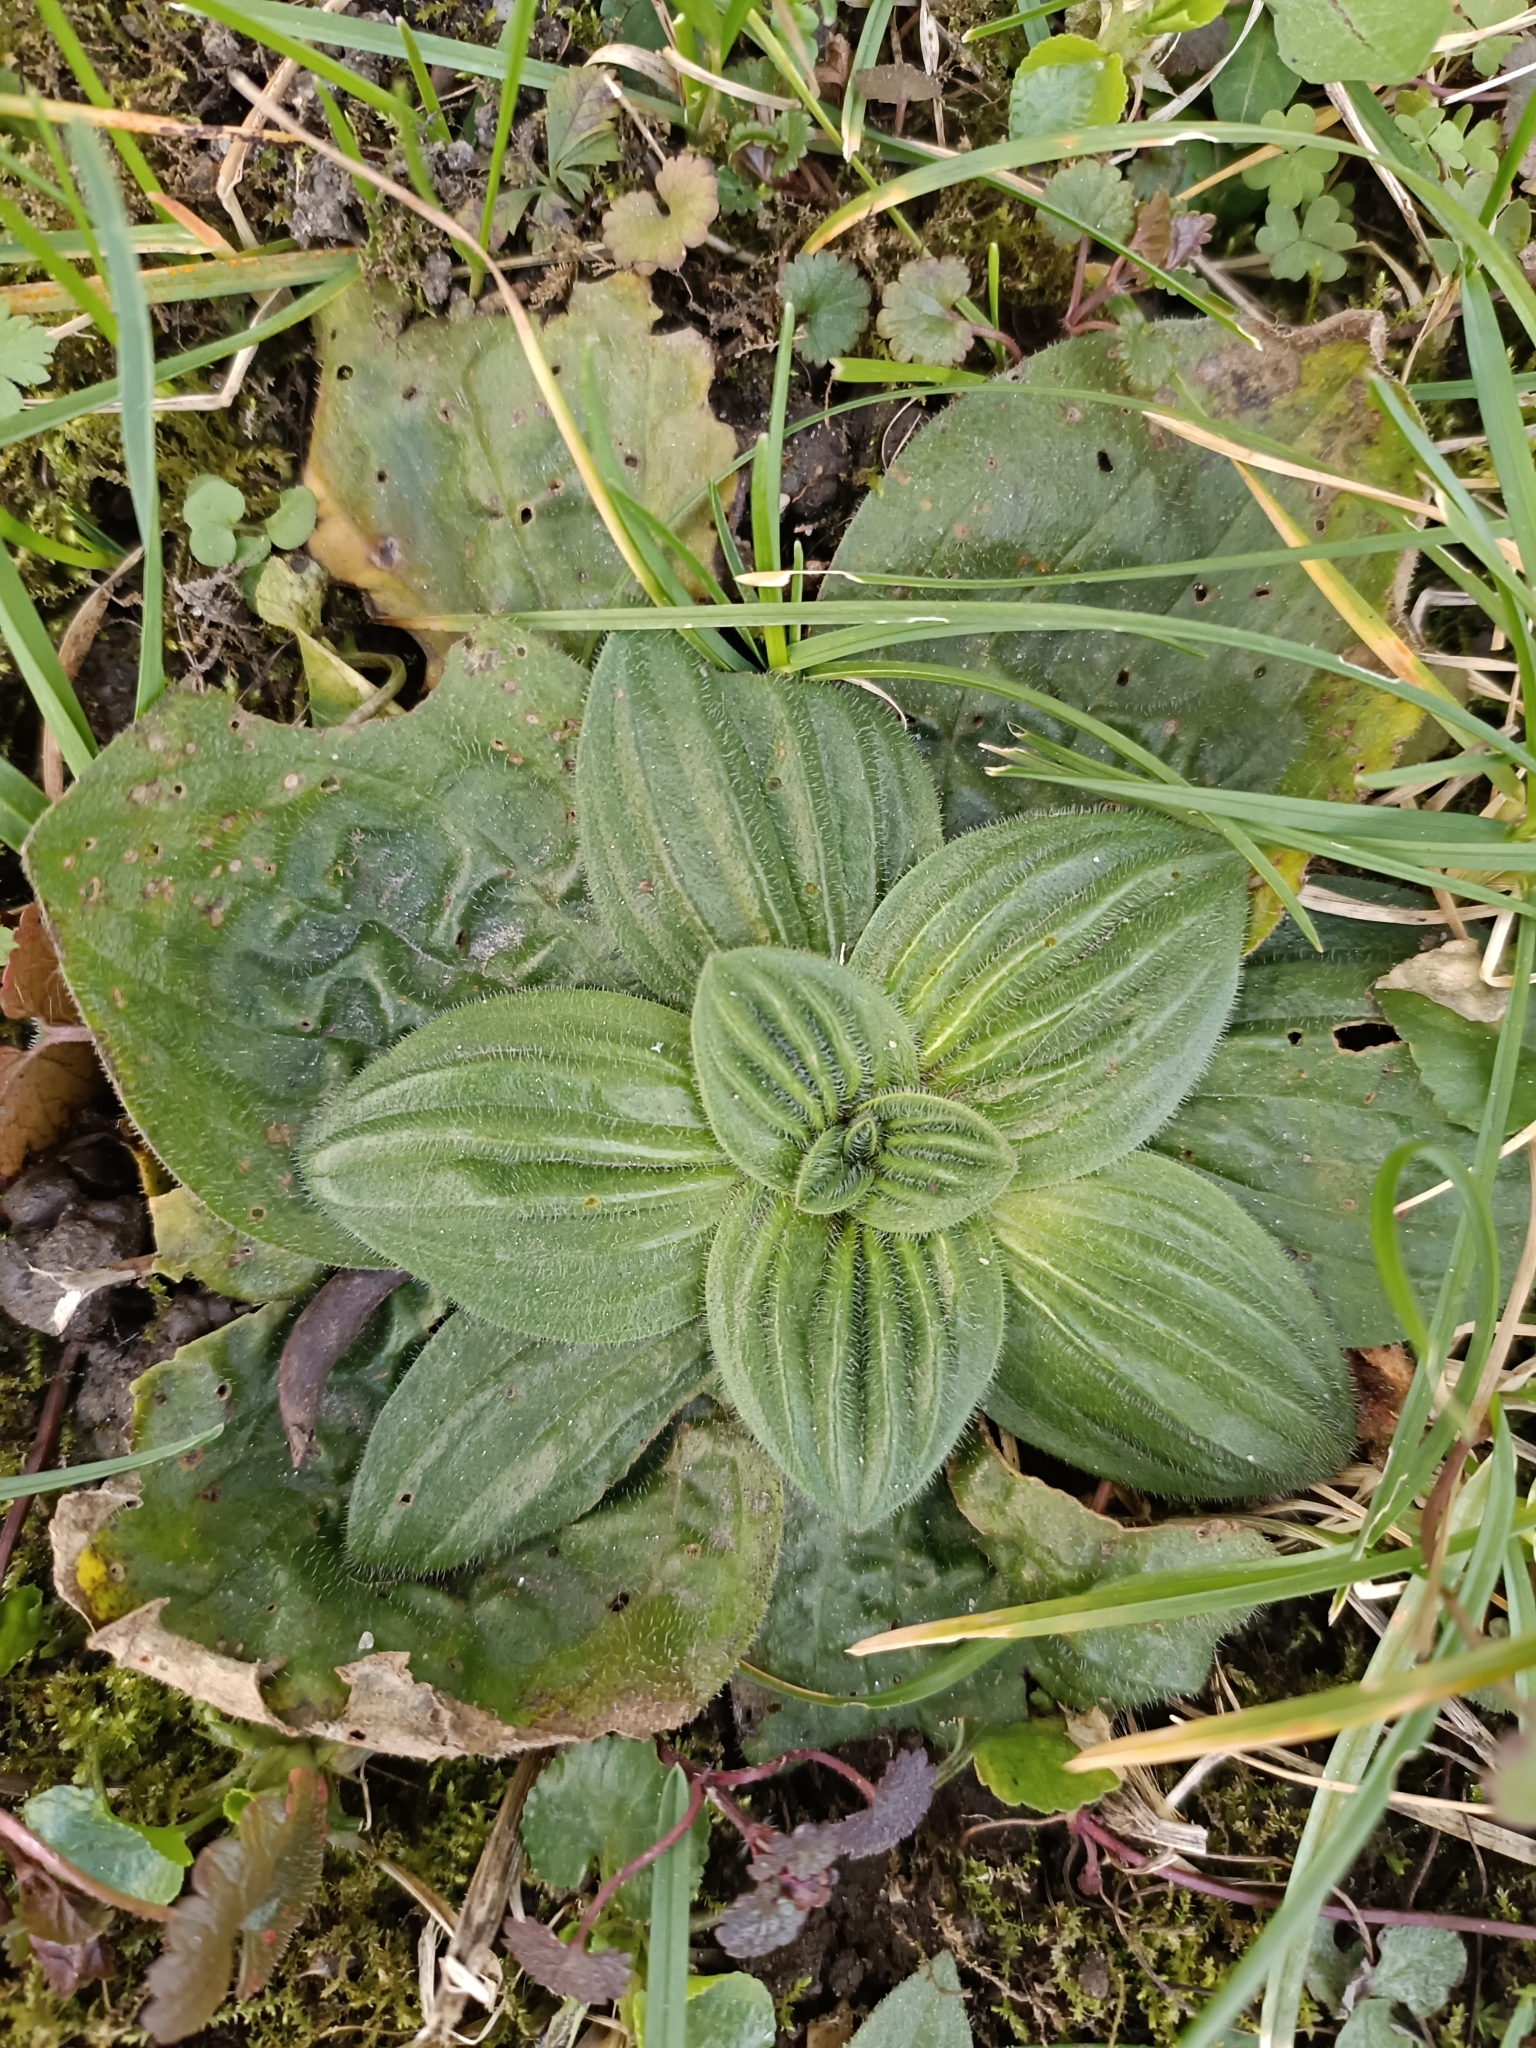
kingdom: Plantae
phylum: Tracheophyta
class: Magnoliopsida
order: Lamiales
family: Plantaginaceae
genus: Plantago
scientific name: Plantago media
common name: Hoary plantain
